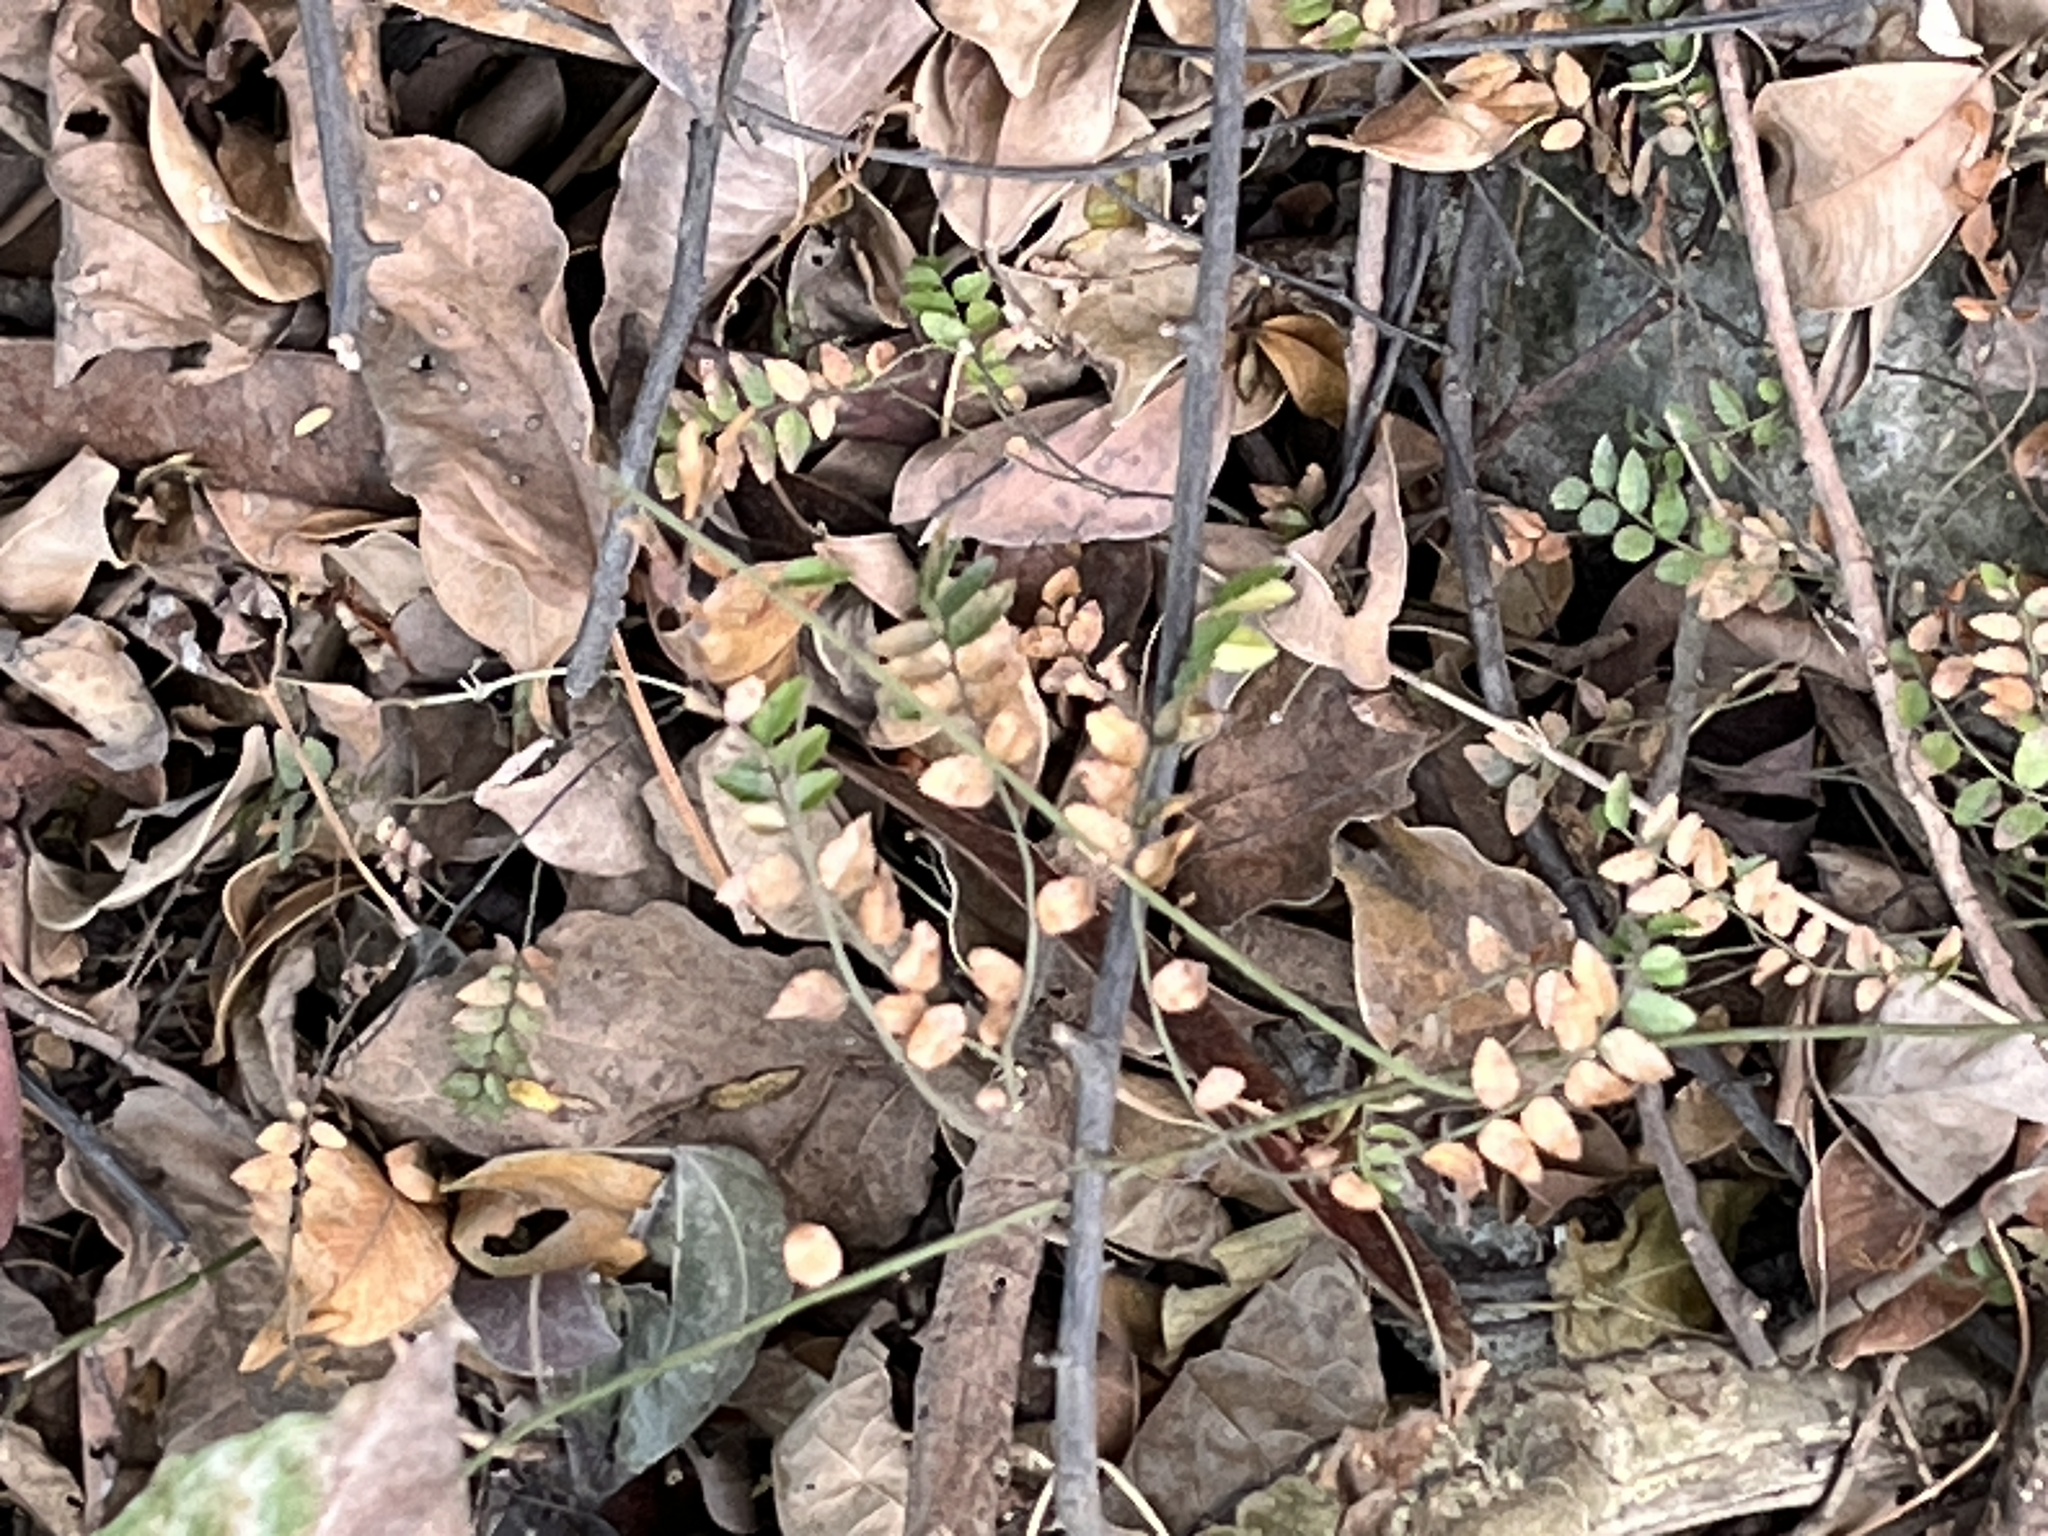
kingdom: Plantae
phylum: Tracheophyta
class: Magnoliopsida
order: Fabales
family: Fabaceae
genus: Flemingia
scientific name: Flemingia strobilifera
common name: Wild hops
